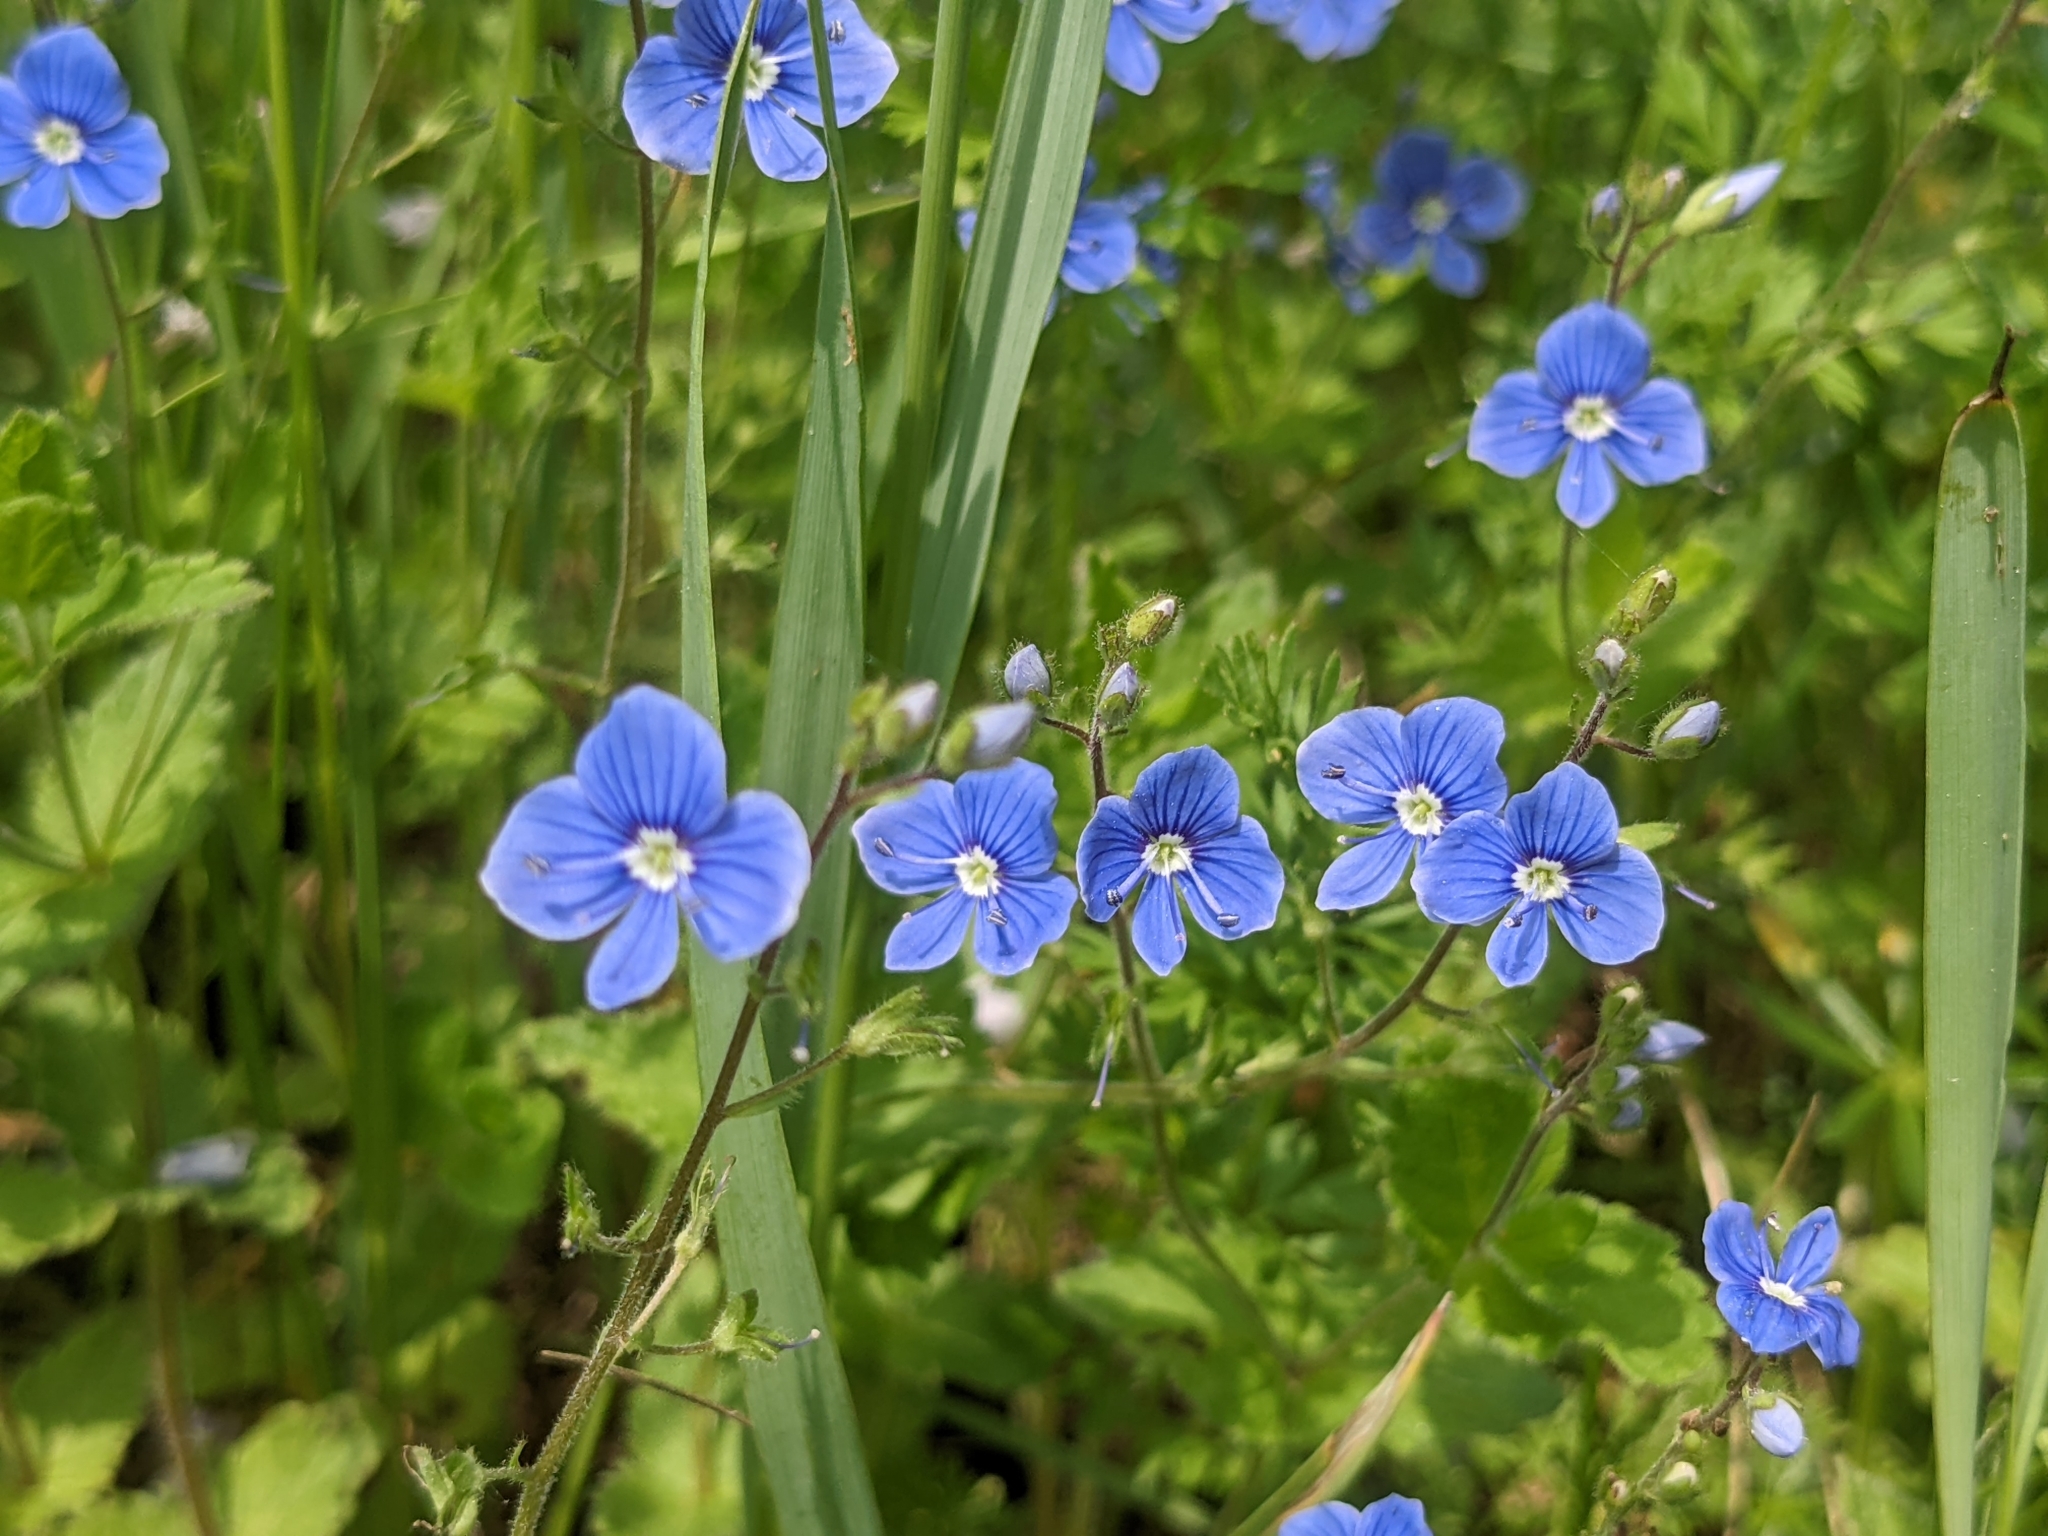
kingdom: Plantae
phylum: Tracheophyta
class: Magnoliopsida
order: Lamiales
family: Plantaginaceae
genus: Veronica
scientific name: Veronica chamaedrys
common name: Germander speedwell
